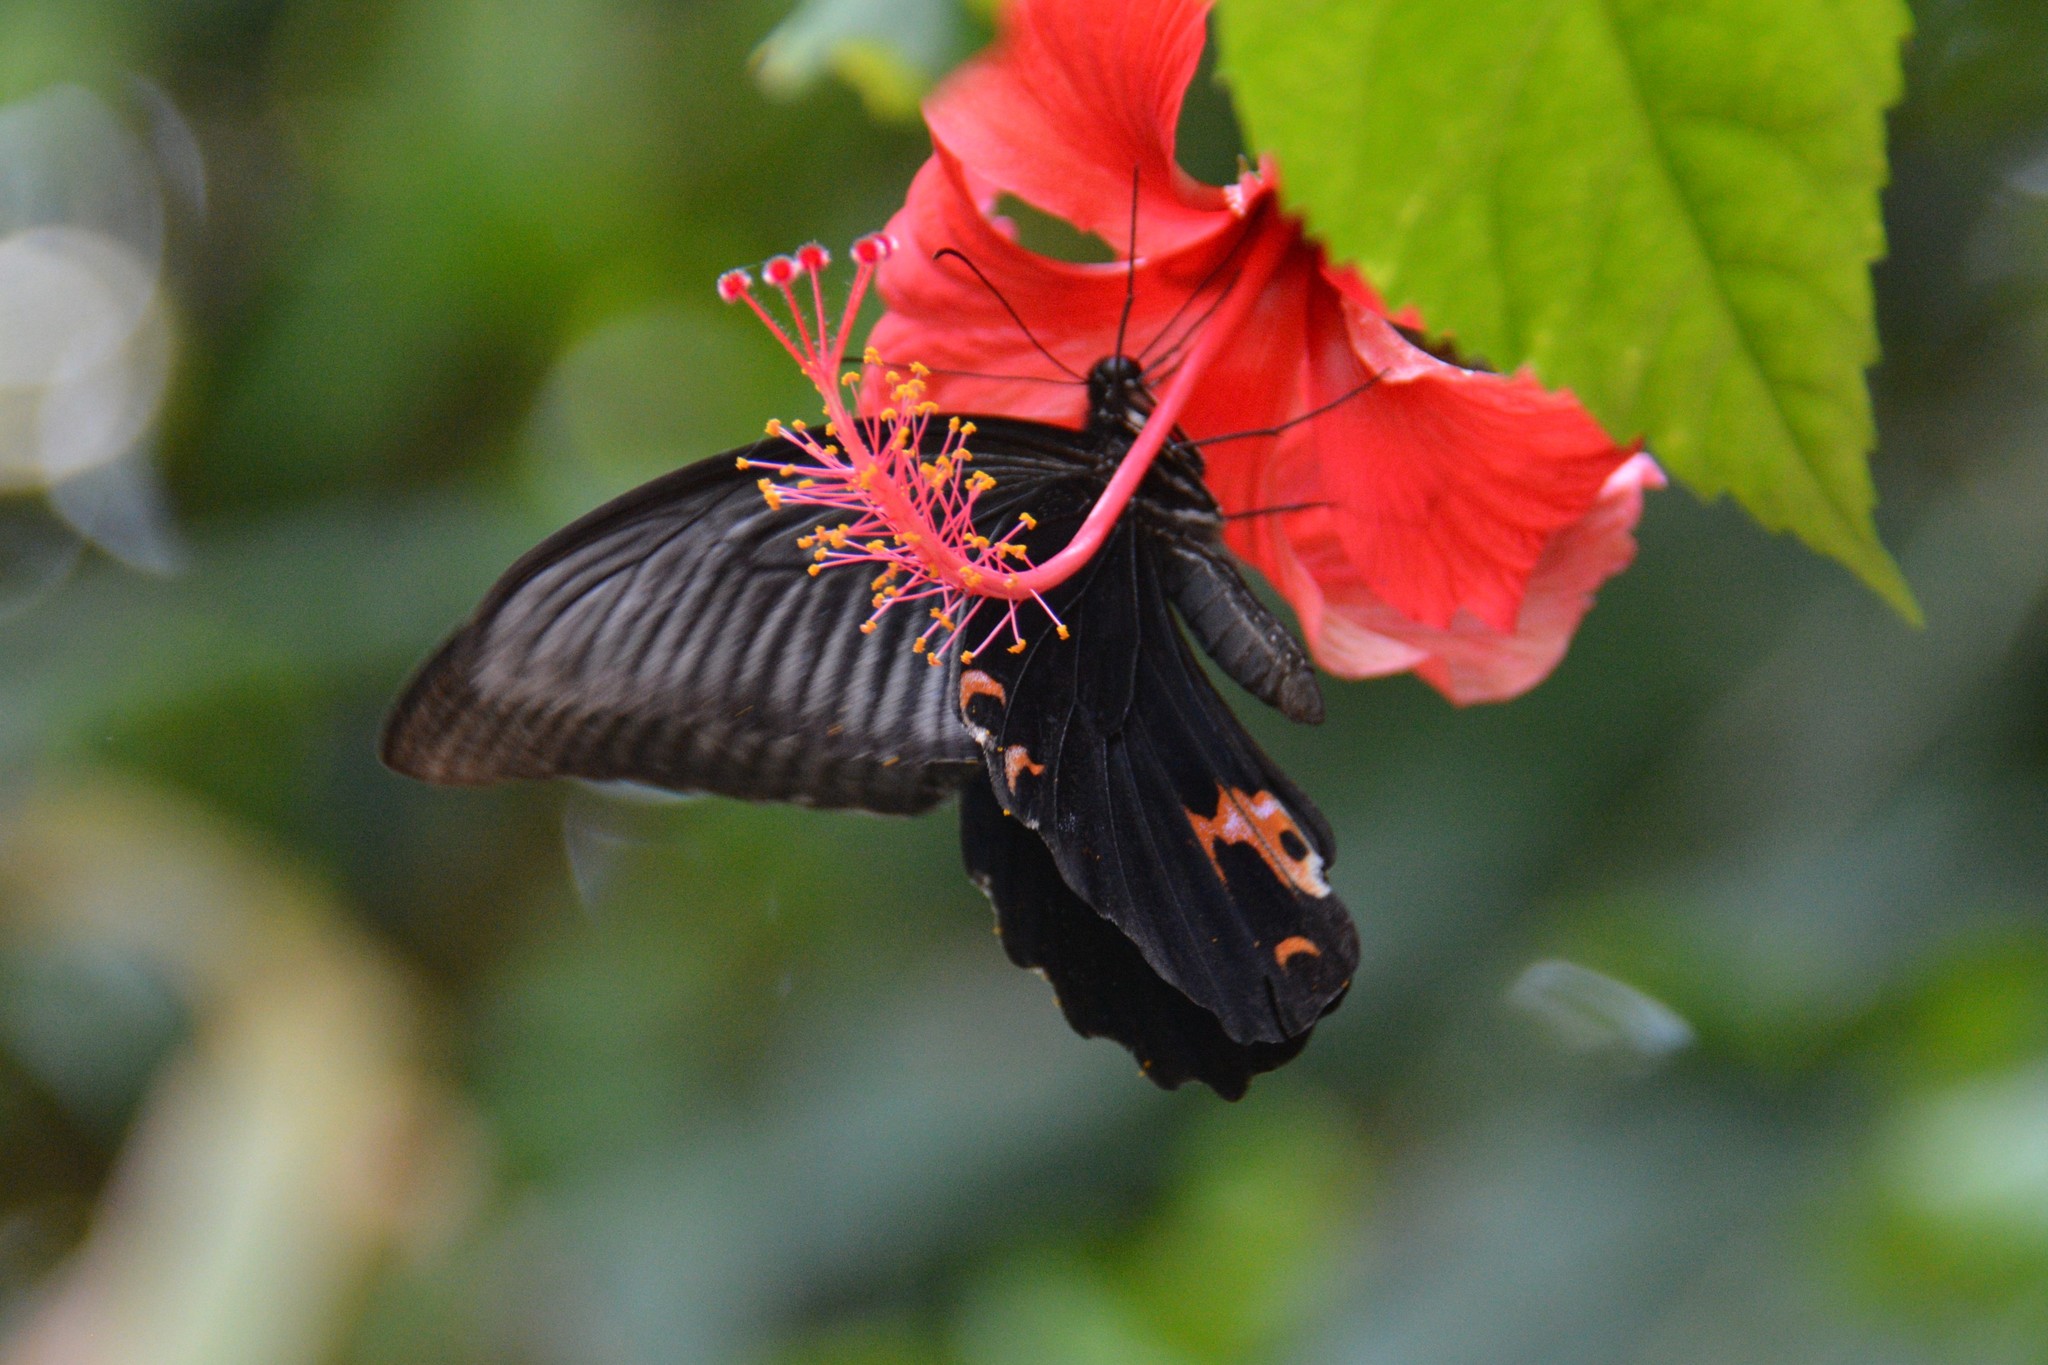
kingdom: Animalia
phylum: Arthropoda
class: Insecta
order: Lepidoptera
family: Papilionidae
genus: Papilio
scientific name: Papilio protenor
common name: Spangle
